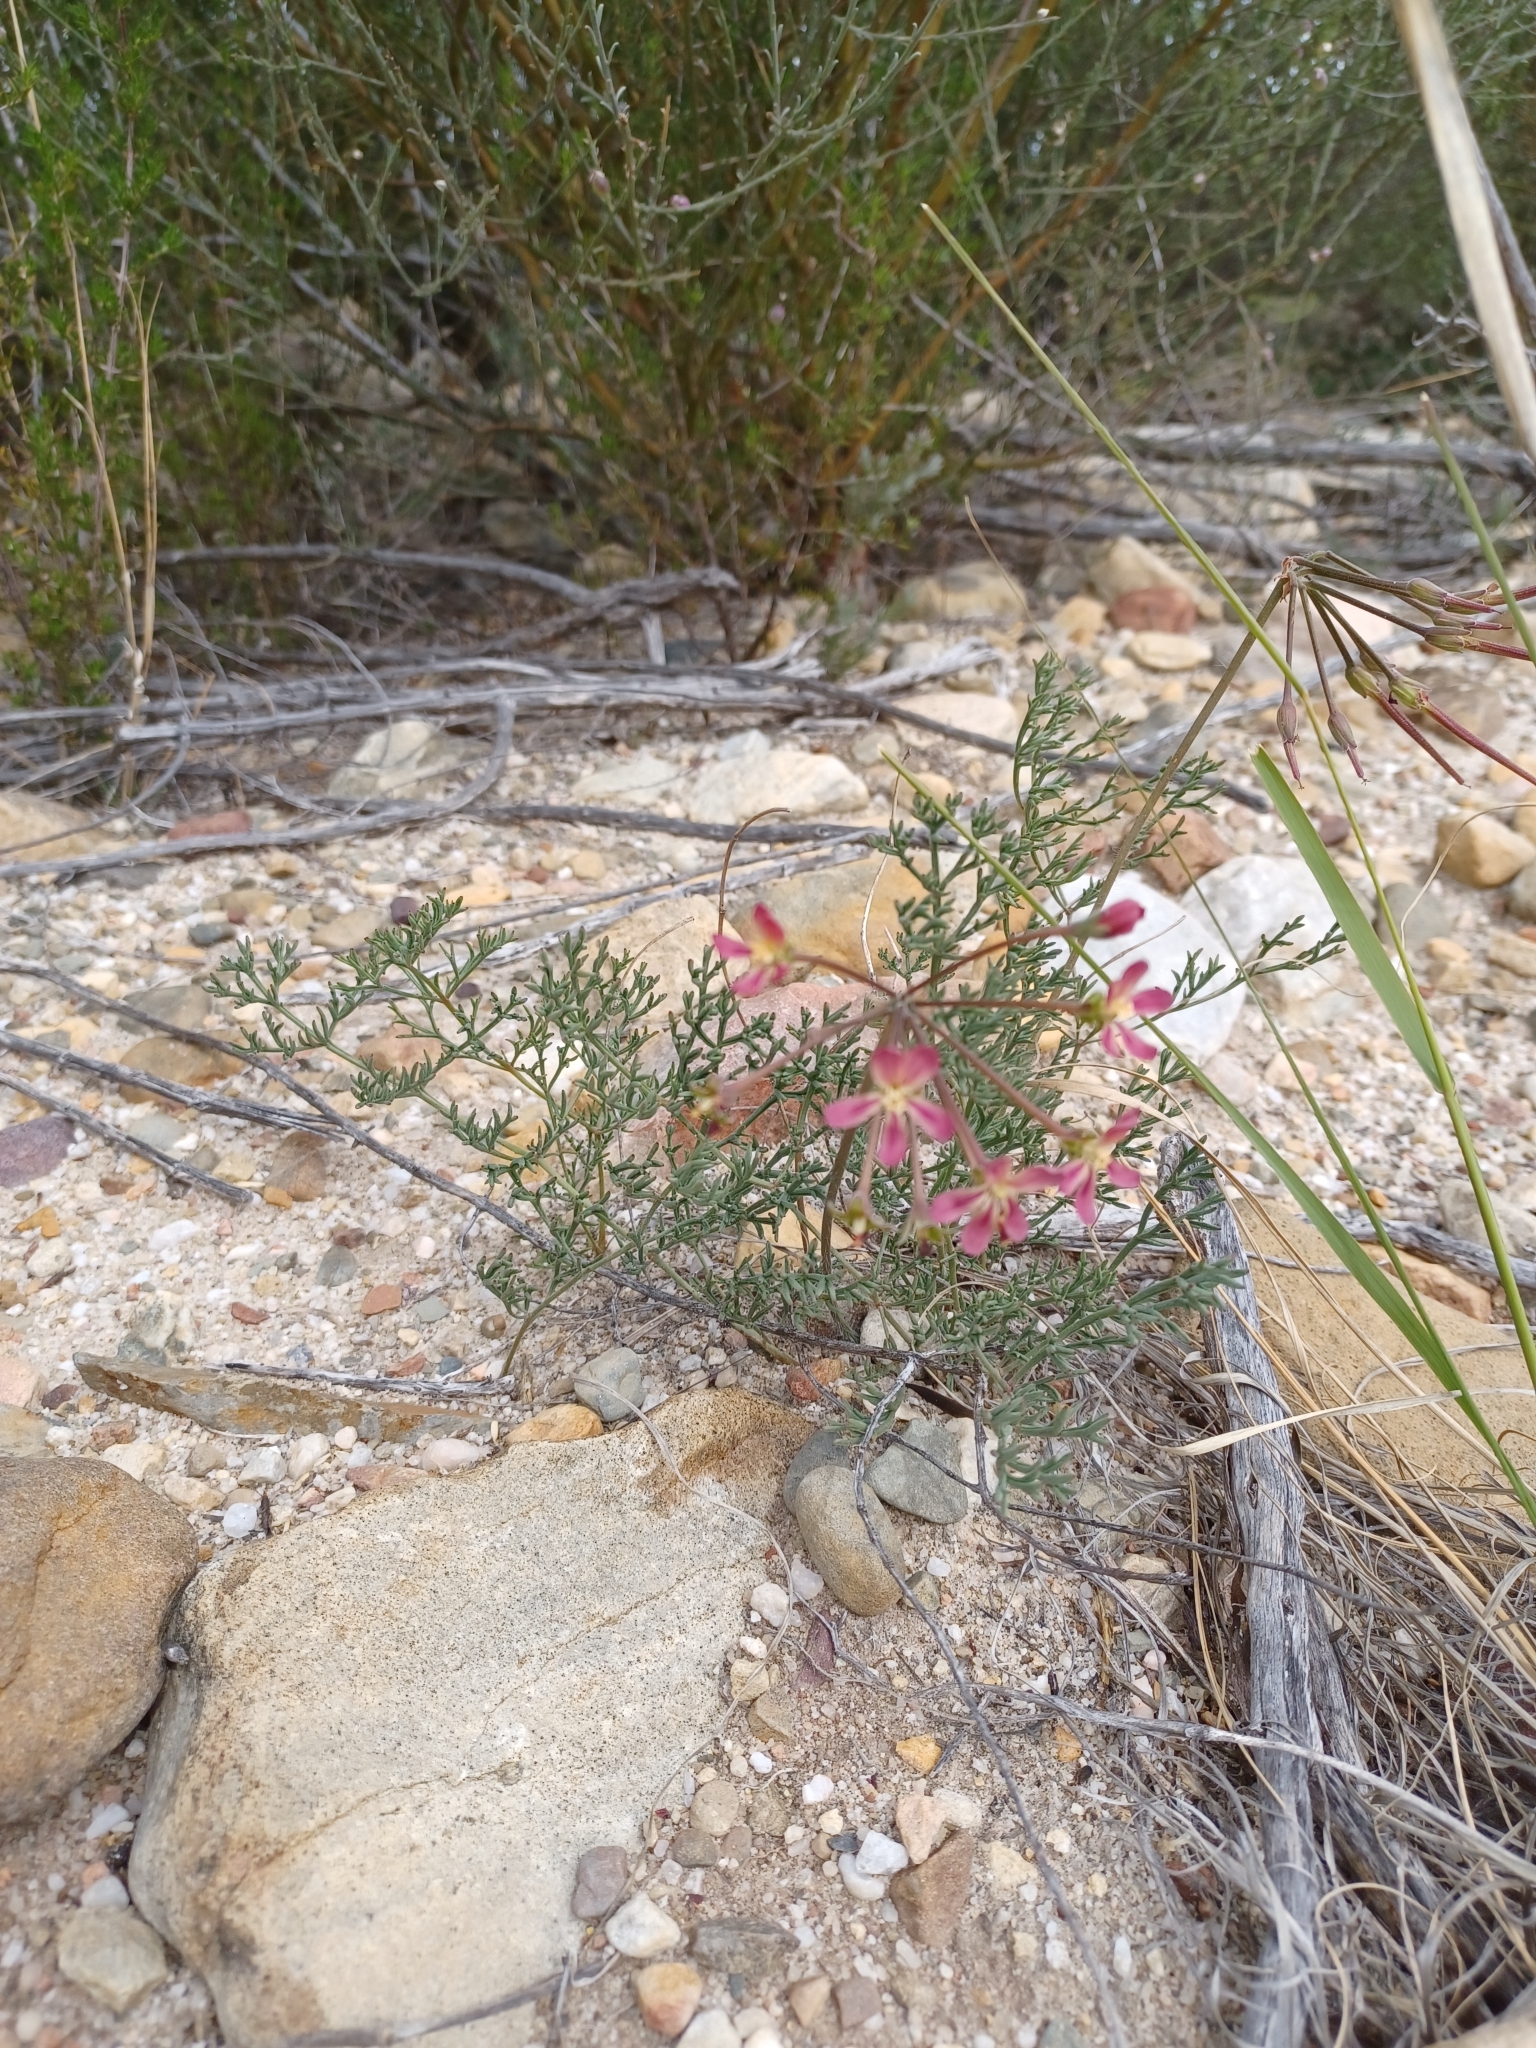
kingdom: Plantae
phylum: Tracheophyta
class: Magnoliopsida
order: Geraniales
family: Geraniaceae
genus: Pelargonium
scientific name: Pelargonium anethifolium
